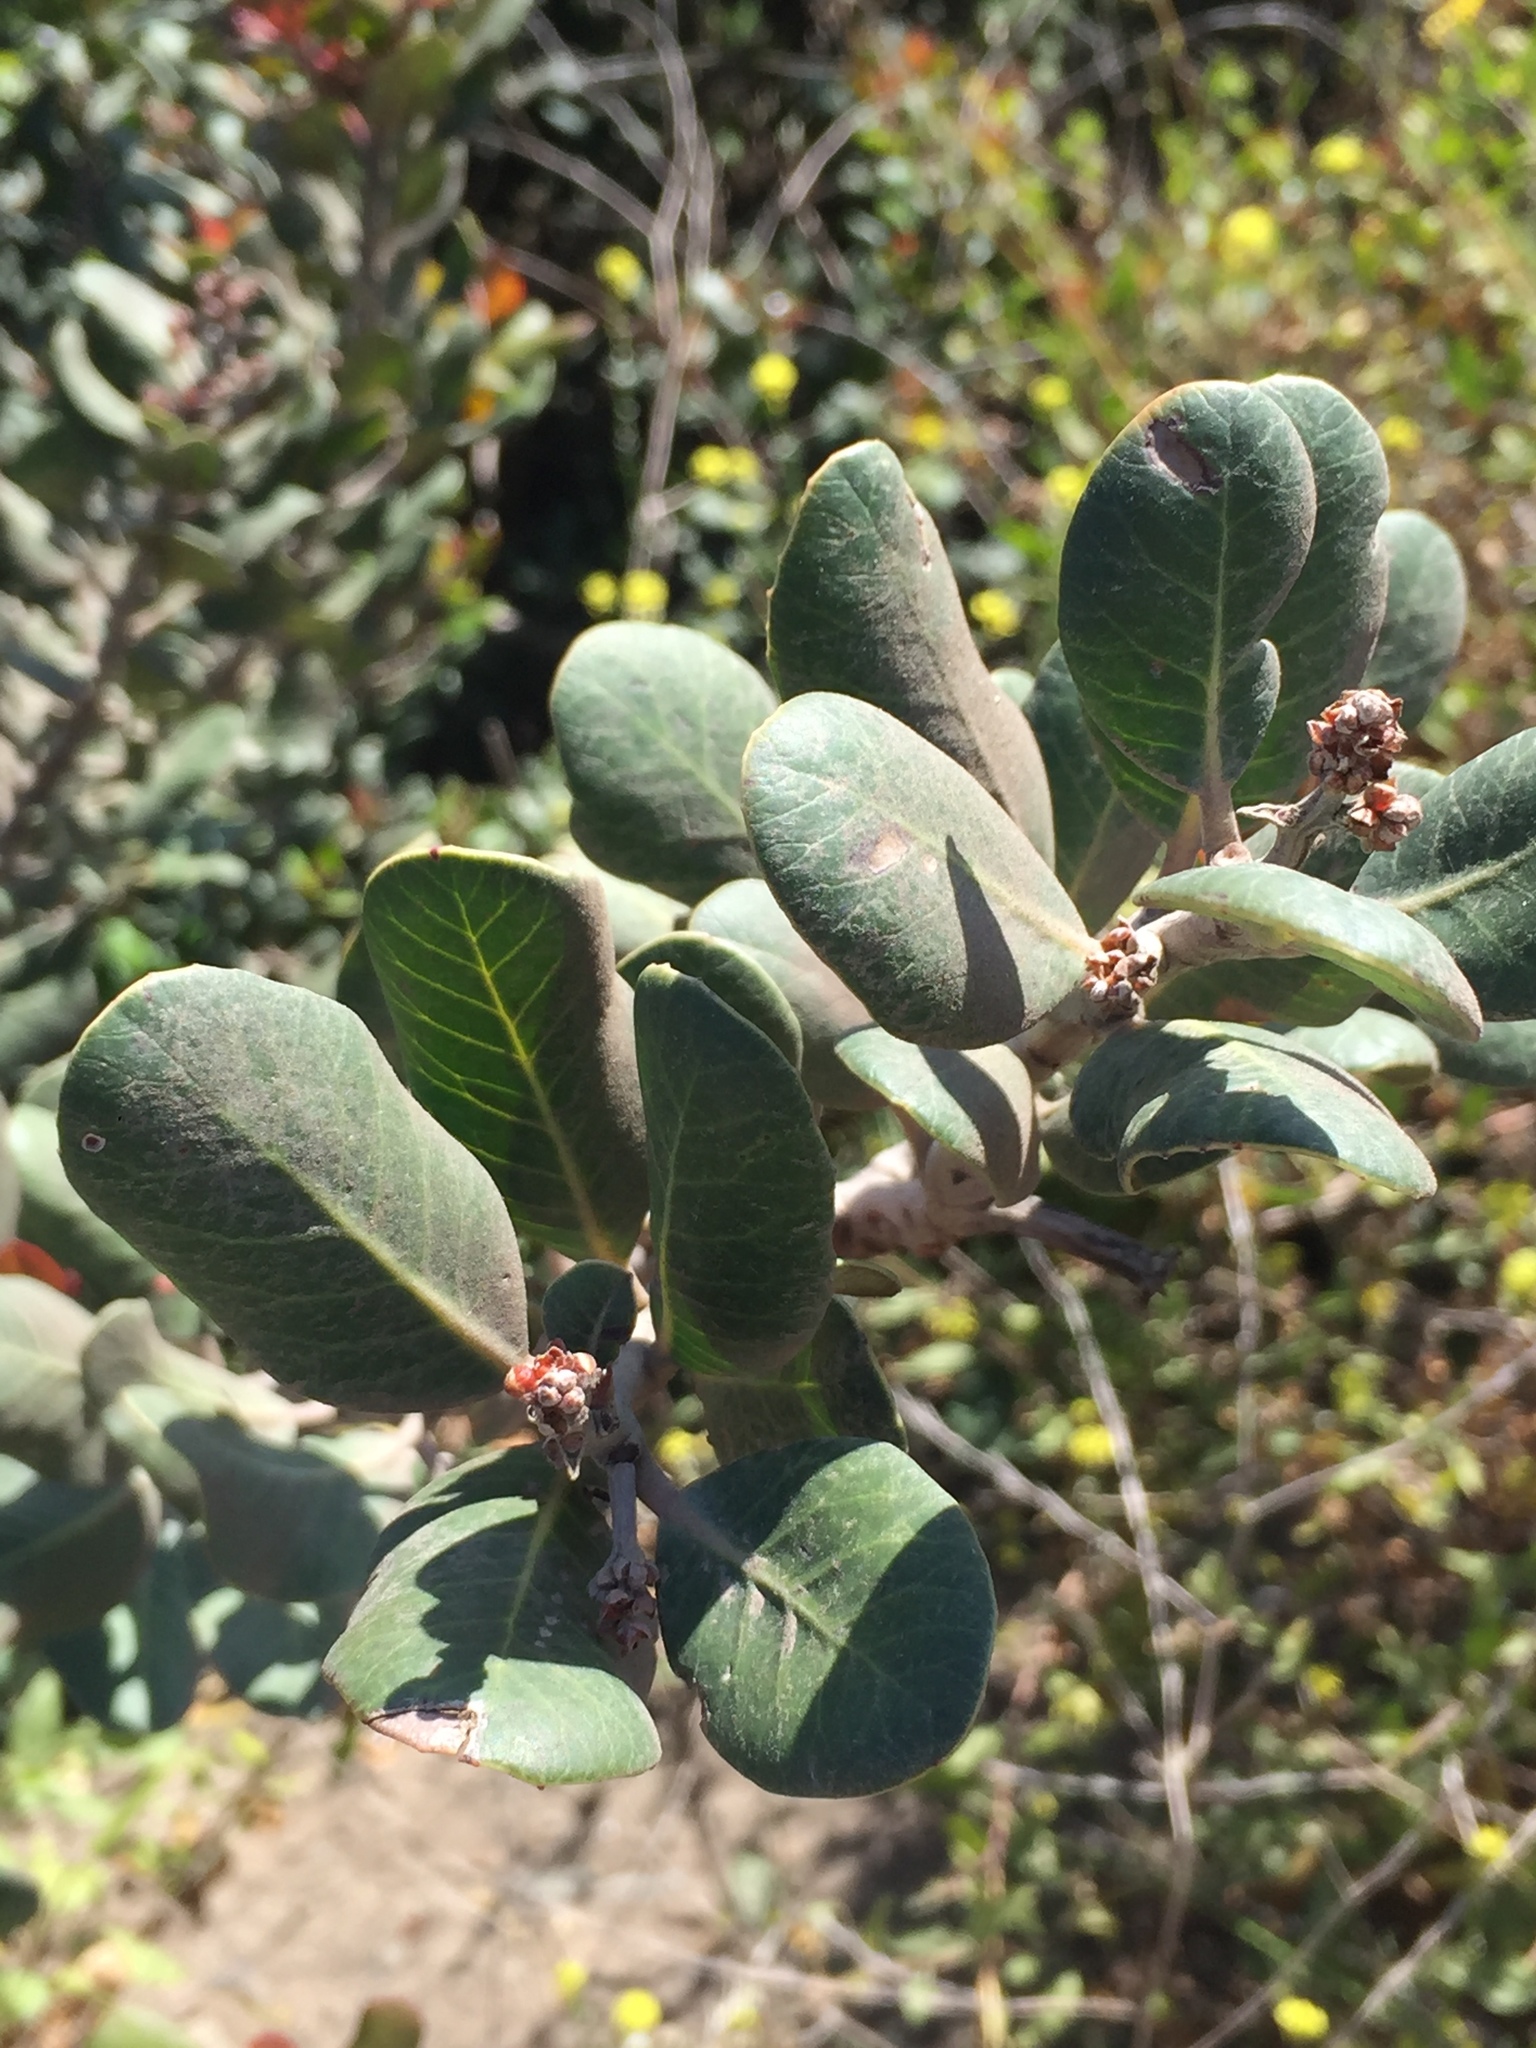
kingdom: Plantae
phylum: Tracheophyta
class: Magnoliopsida
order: Sapindales
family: Anacardiaceae
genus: Rhus
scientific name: Rhus integrifolia
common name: Lemonade sumac
